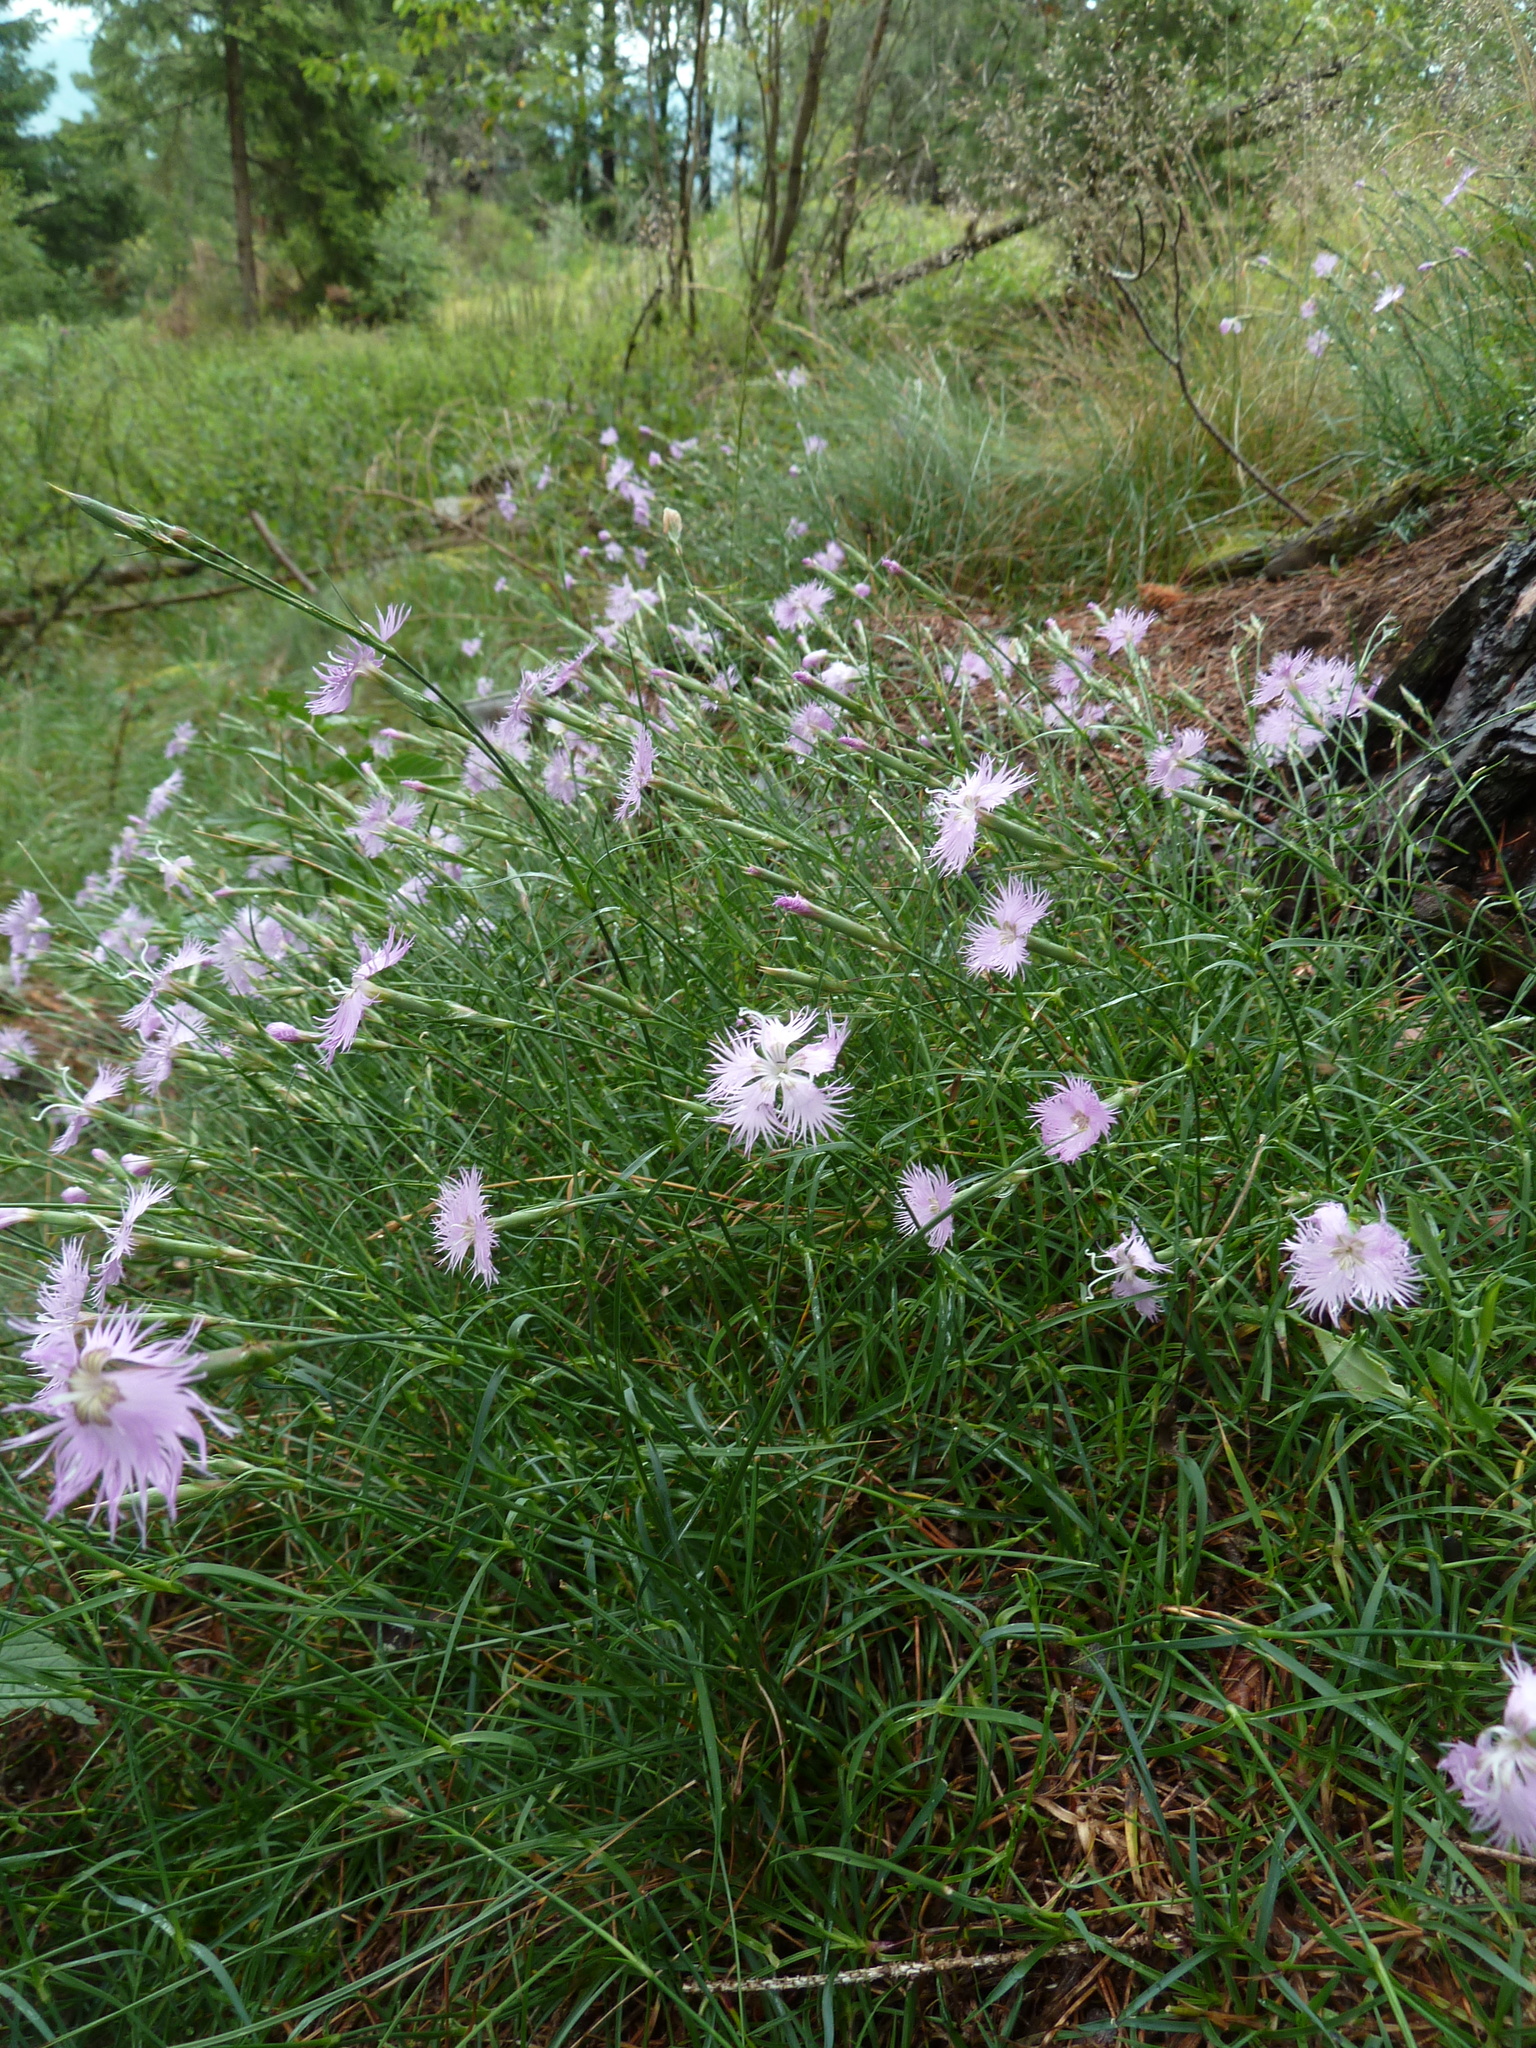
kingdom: Plantae
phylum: Tracheophyta
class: Magnoliopsida
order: Caryophyllales
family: Caryophyllaceae
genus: Dianthus
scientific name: Dianthus hyssopifolius
